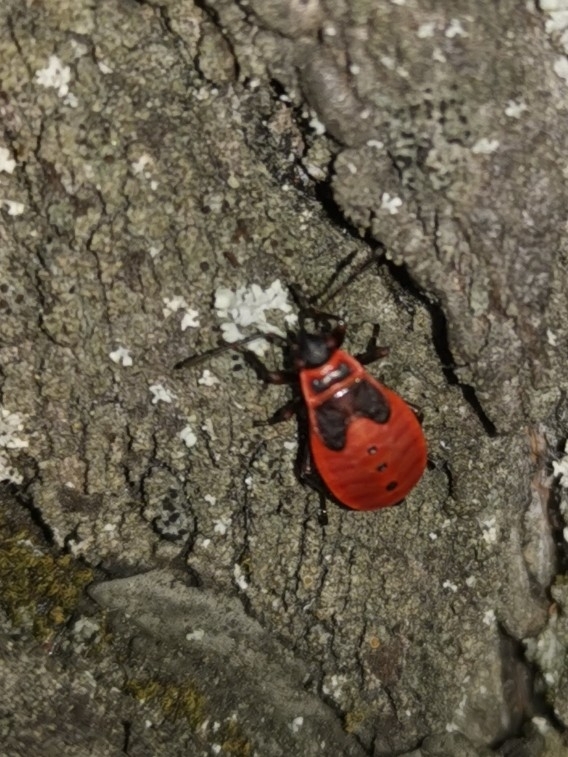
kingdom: Animalia
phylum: Arthropoda
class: Insecta
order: Hemiptera
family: Pyrrhocoridae
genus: Pyrrhocoris
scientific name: Pyrrhocoris apterus
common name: Firebug
